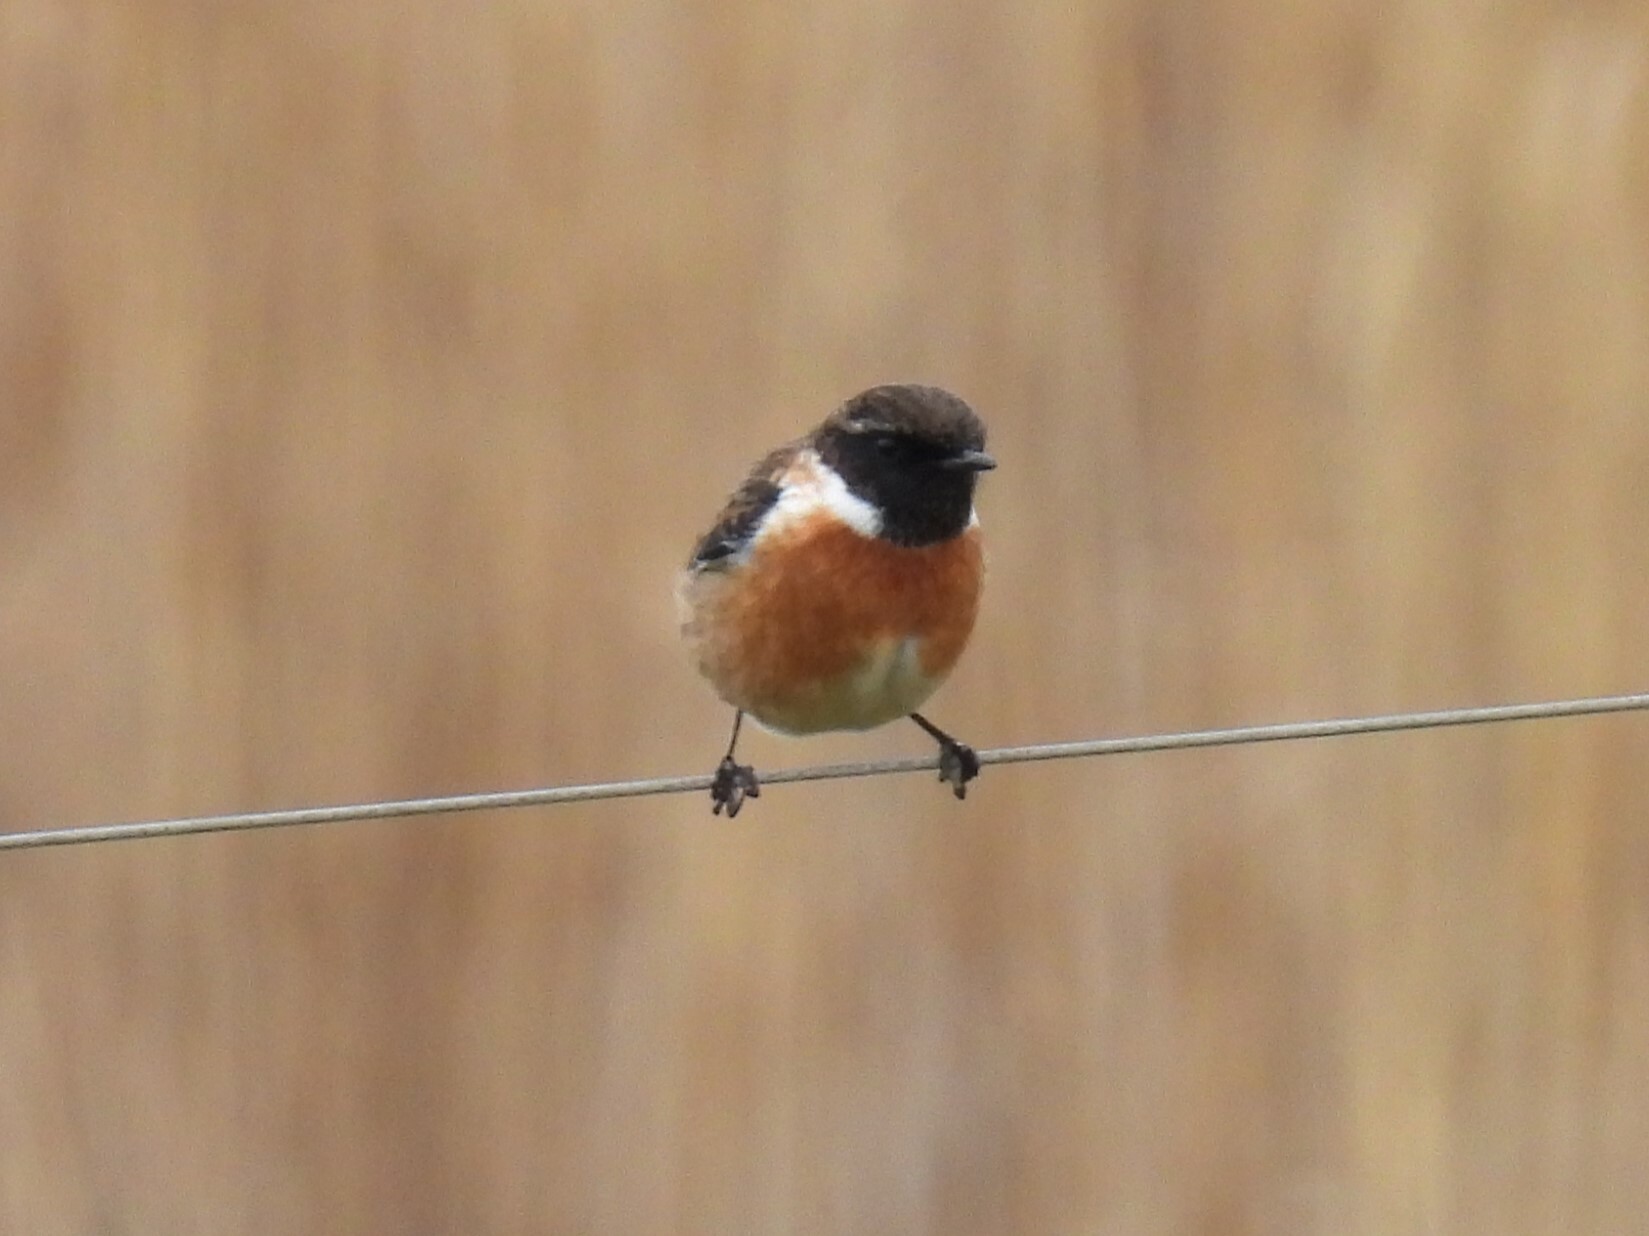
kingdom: Animalia
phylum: Chordata
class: Aves
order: Passeriformes
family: Muscicapidae
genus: Saxicola
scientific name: Saxicola rubicola
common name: European stonechat
